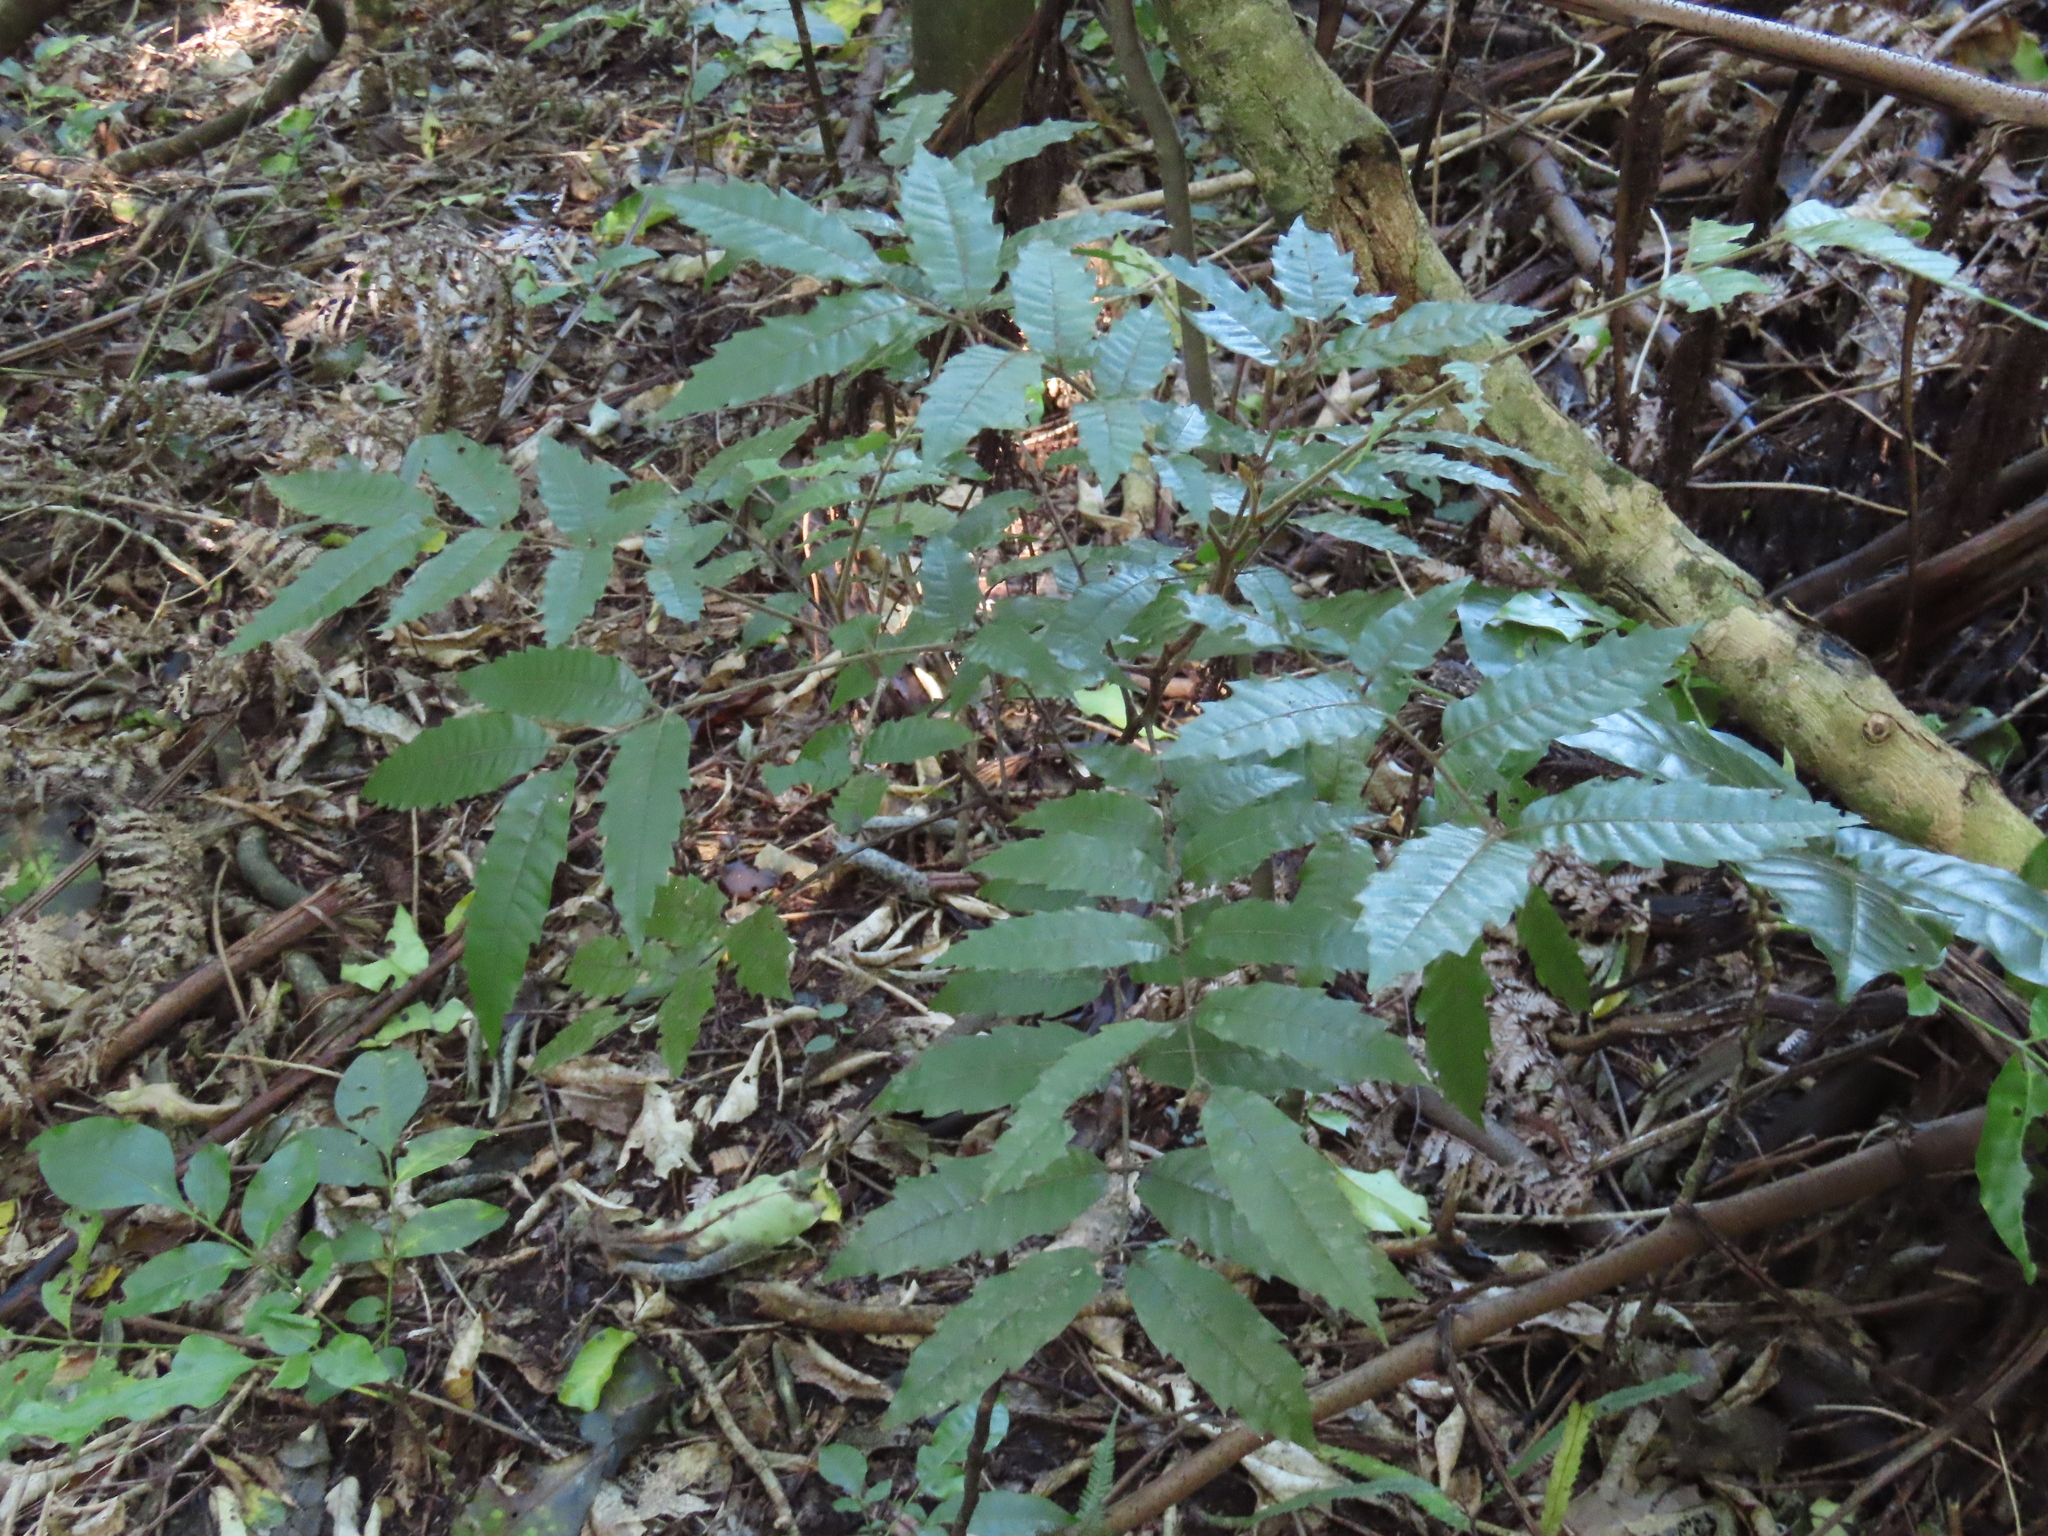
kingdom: Plantae
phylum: Tracheophyta
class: Magnoliopsida
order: Sapindales
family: Sapindaceae
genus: Alectryon
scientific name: Alectryon excelsus
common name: Three kings titoki
